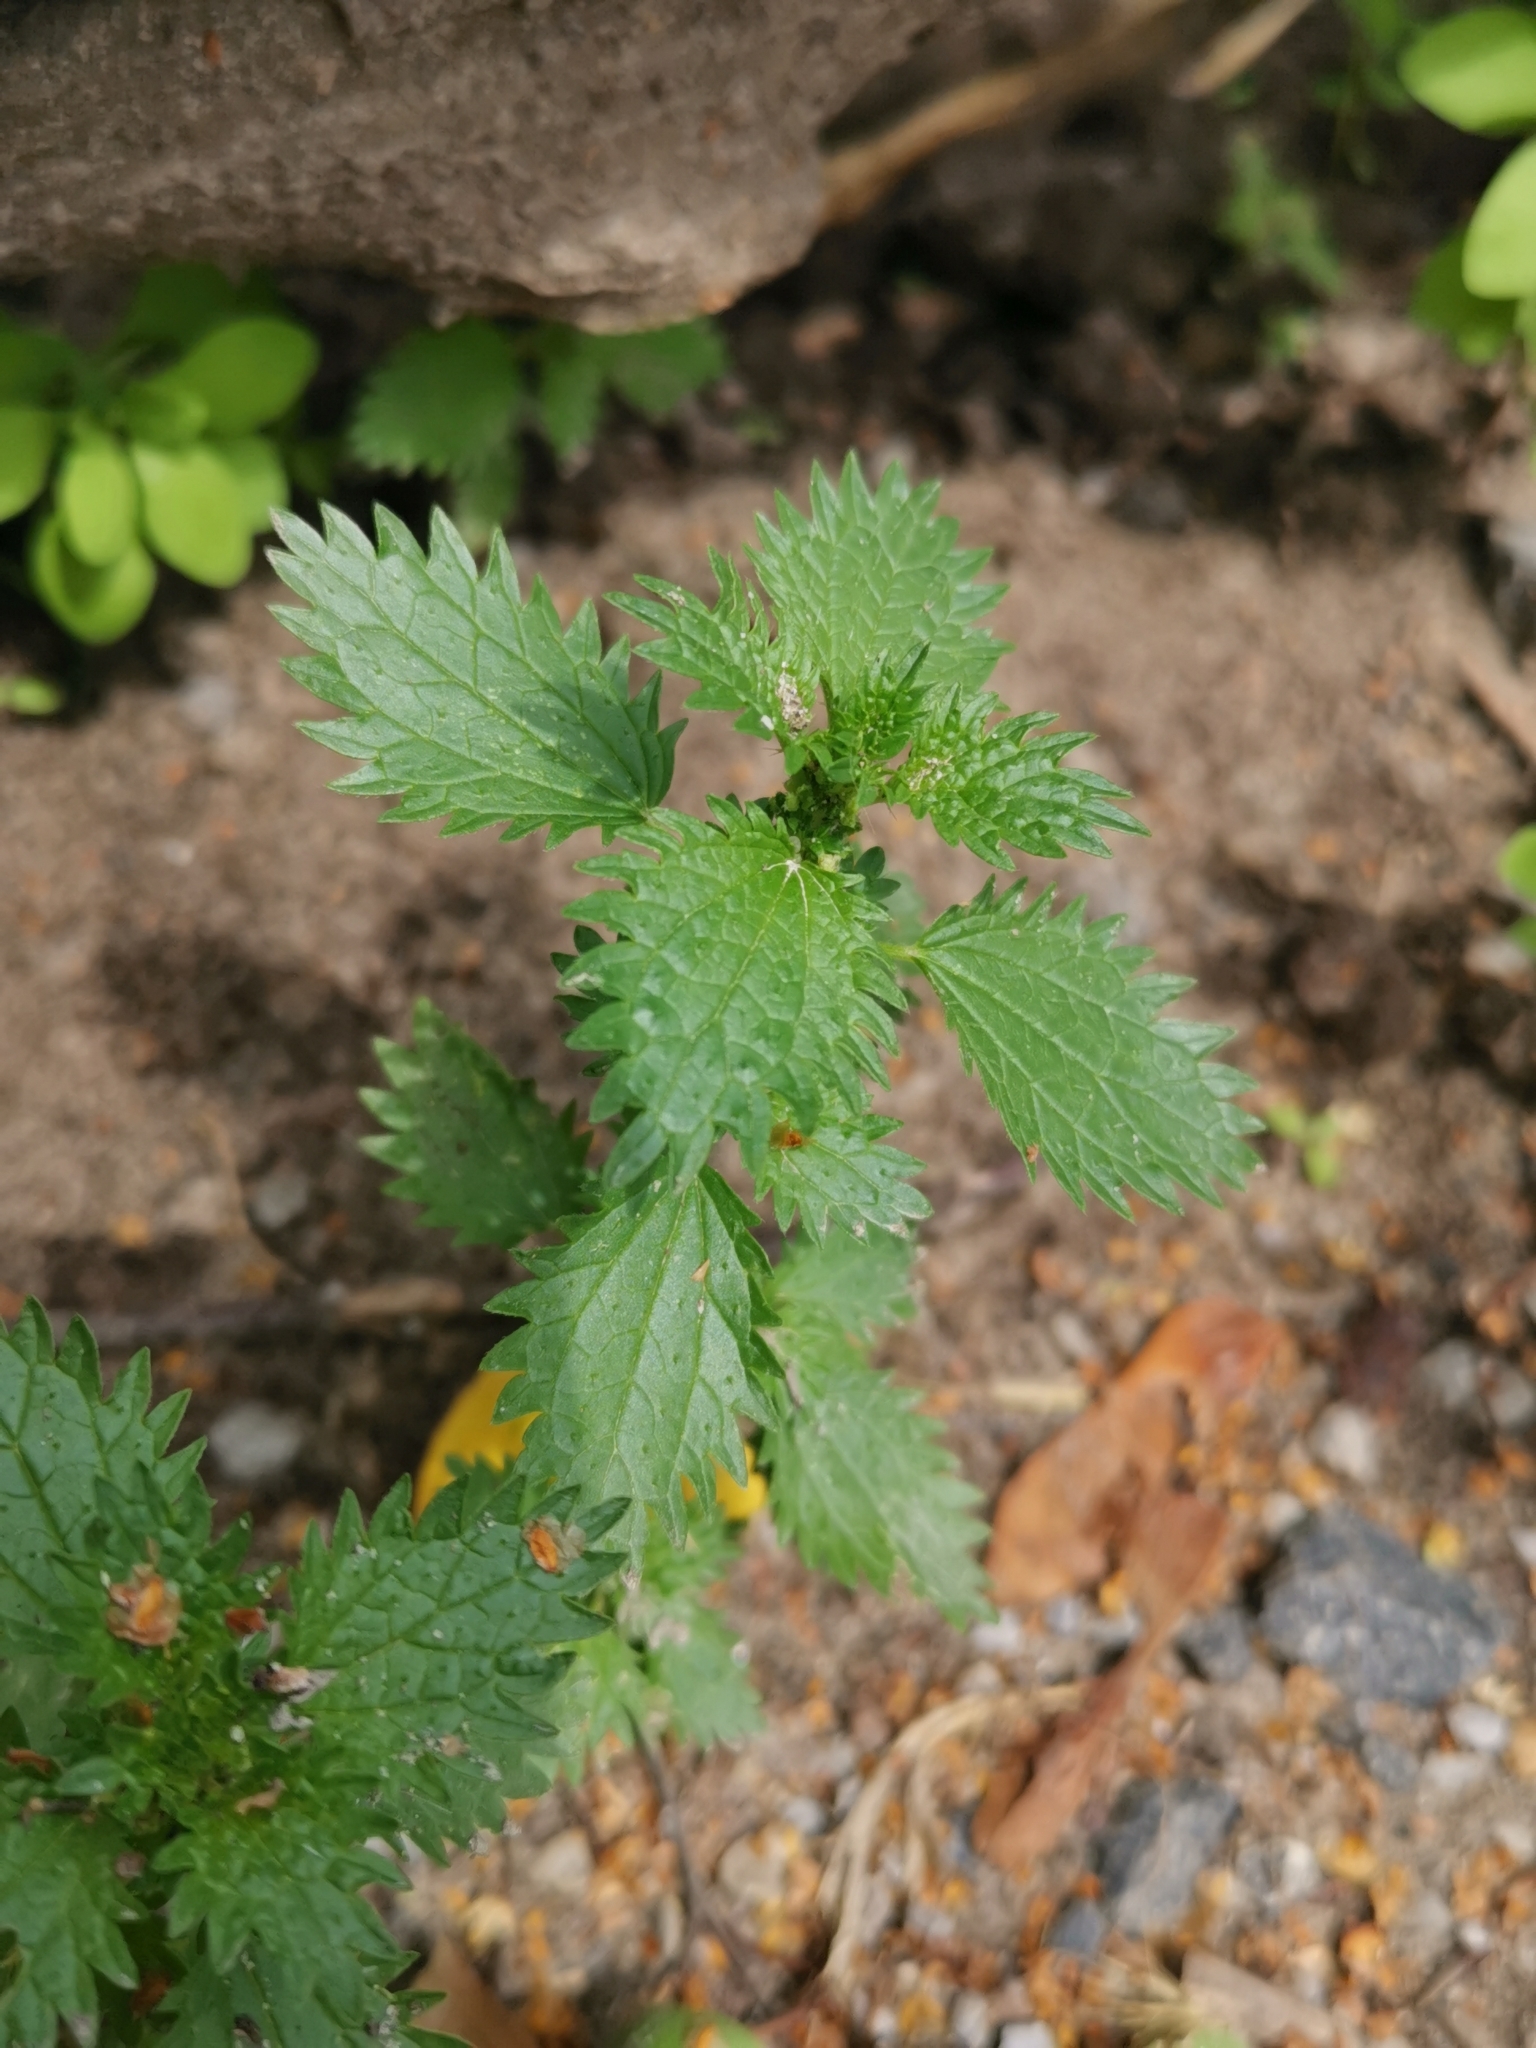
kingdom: Plantae
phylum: Tracheophyta
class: Magnoliopsida
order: Rosales
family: Urticaceae
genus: Urtica
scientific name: Urtica urens
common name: Dwarf nettle
